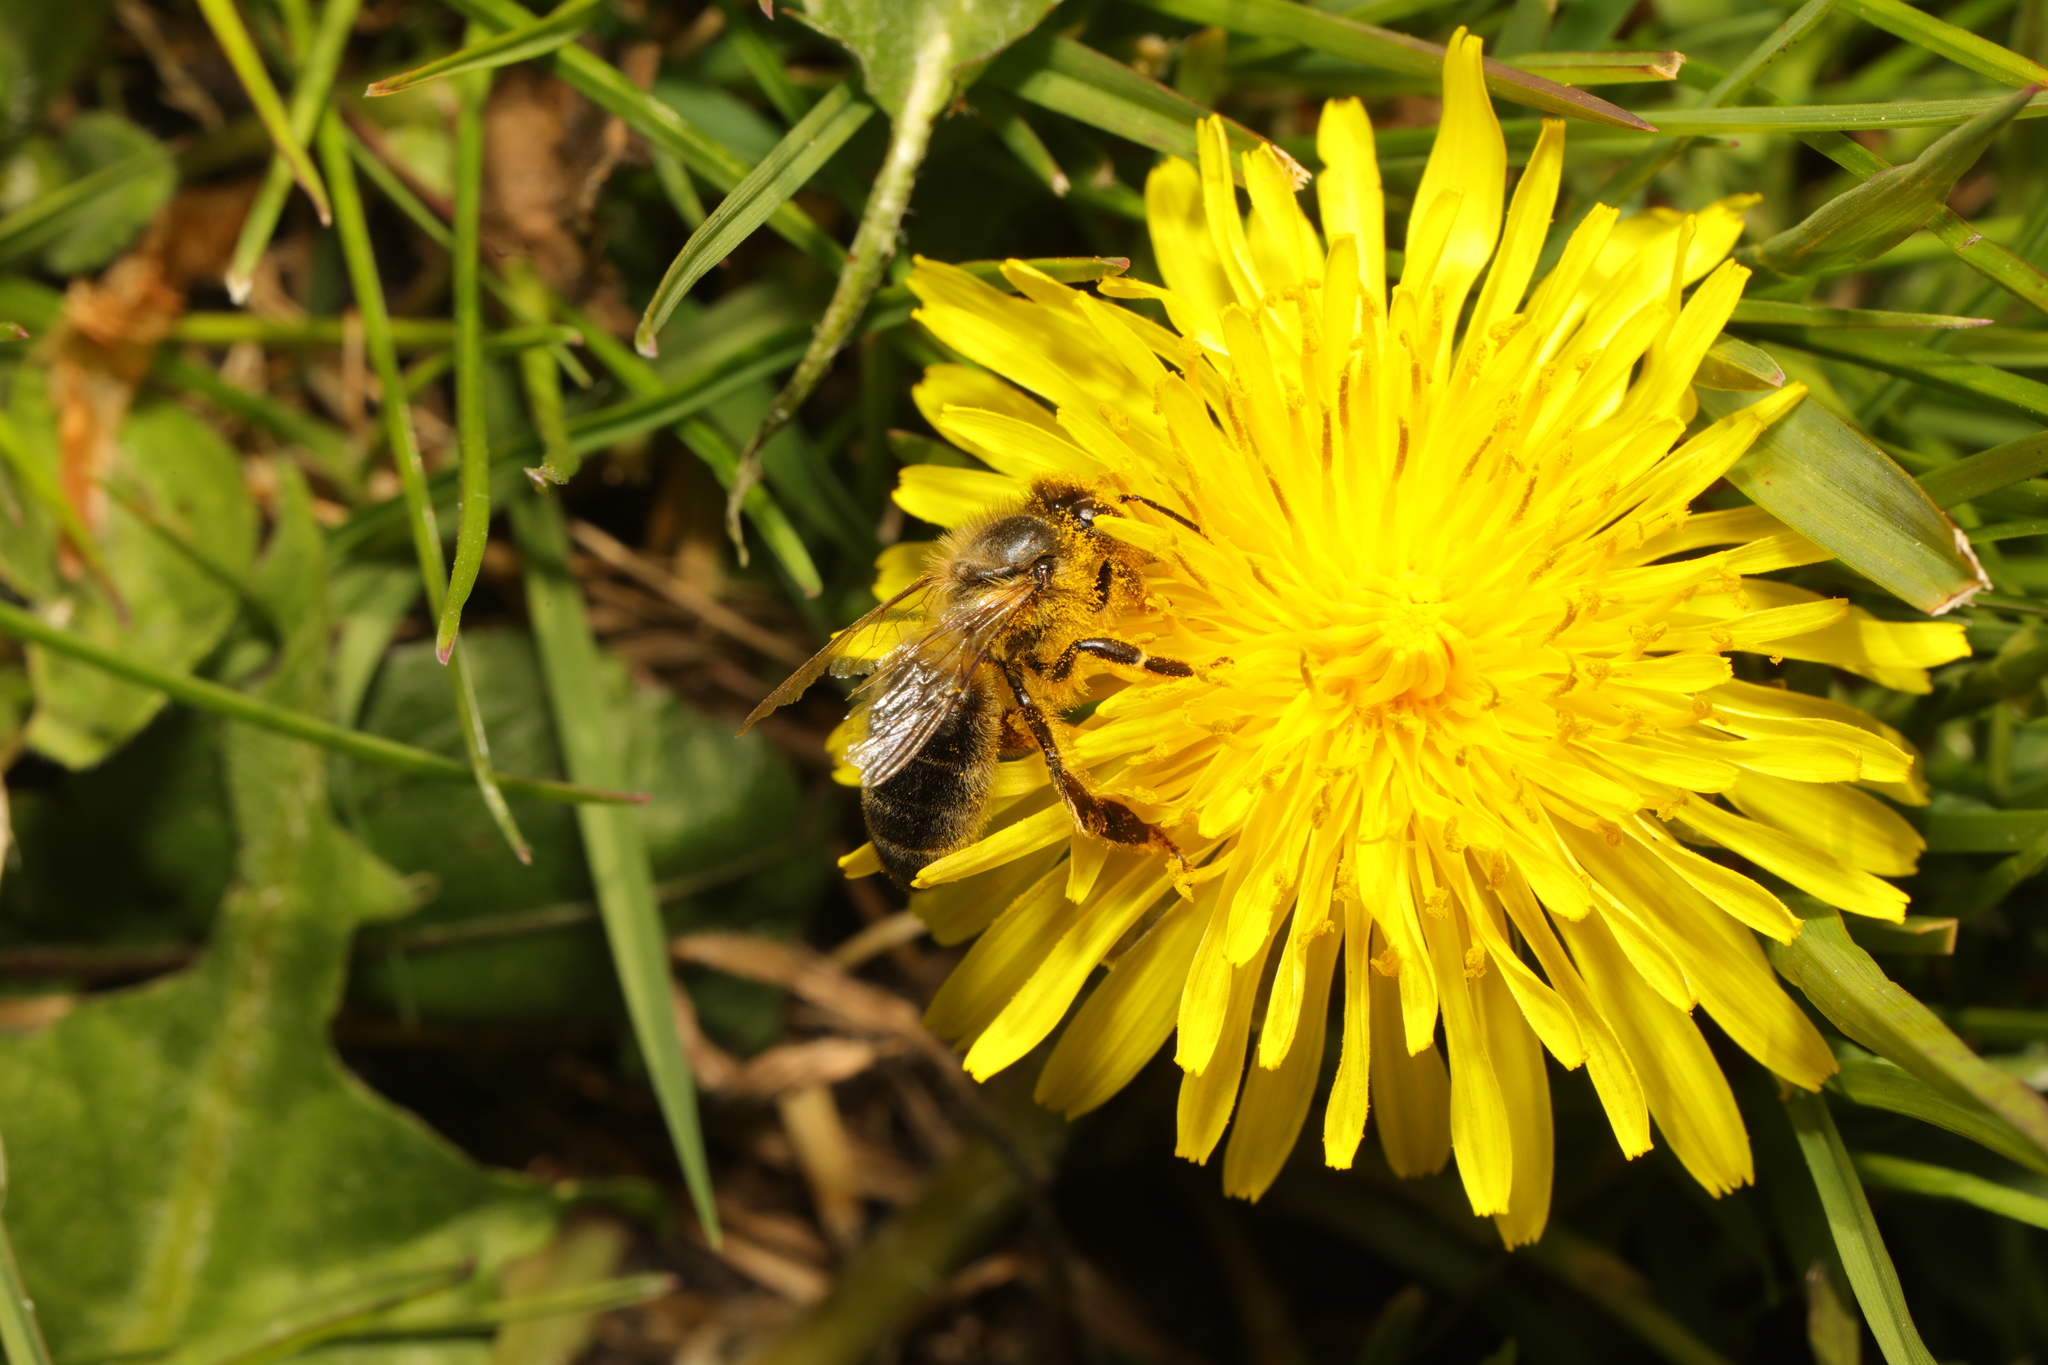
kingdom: Animalia
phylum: Arthropoda
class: Insecta
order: Hymenoptera
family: Apidae
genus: Apis
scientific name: Apis mellifera
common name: Honey bee
